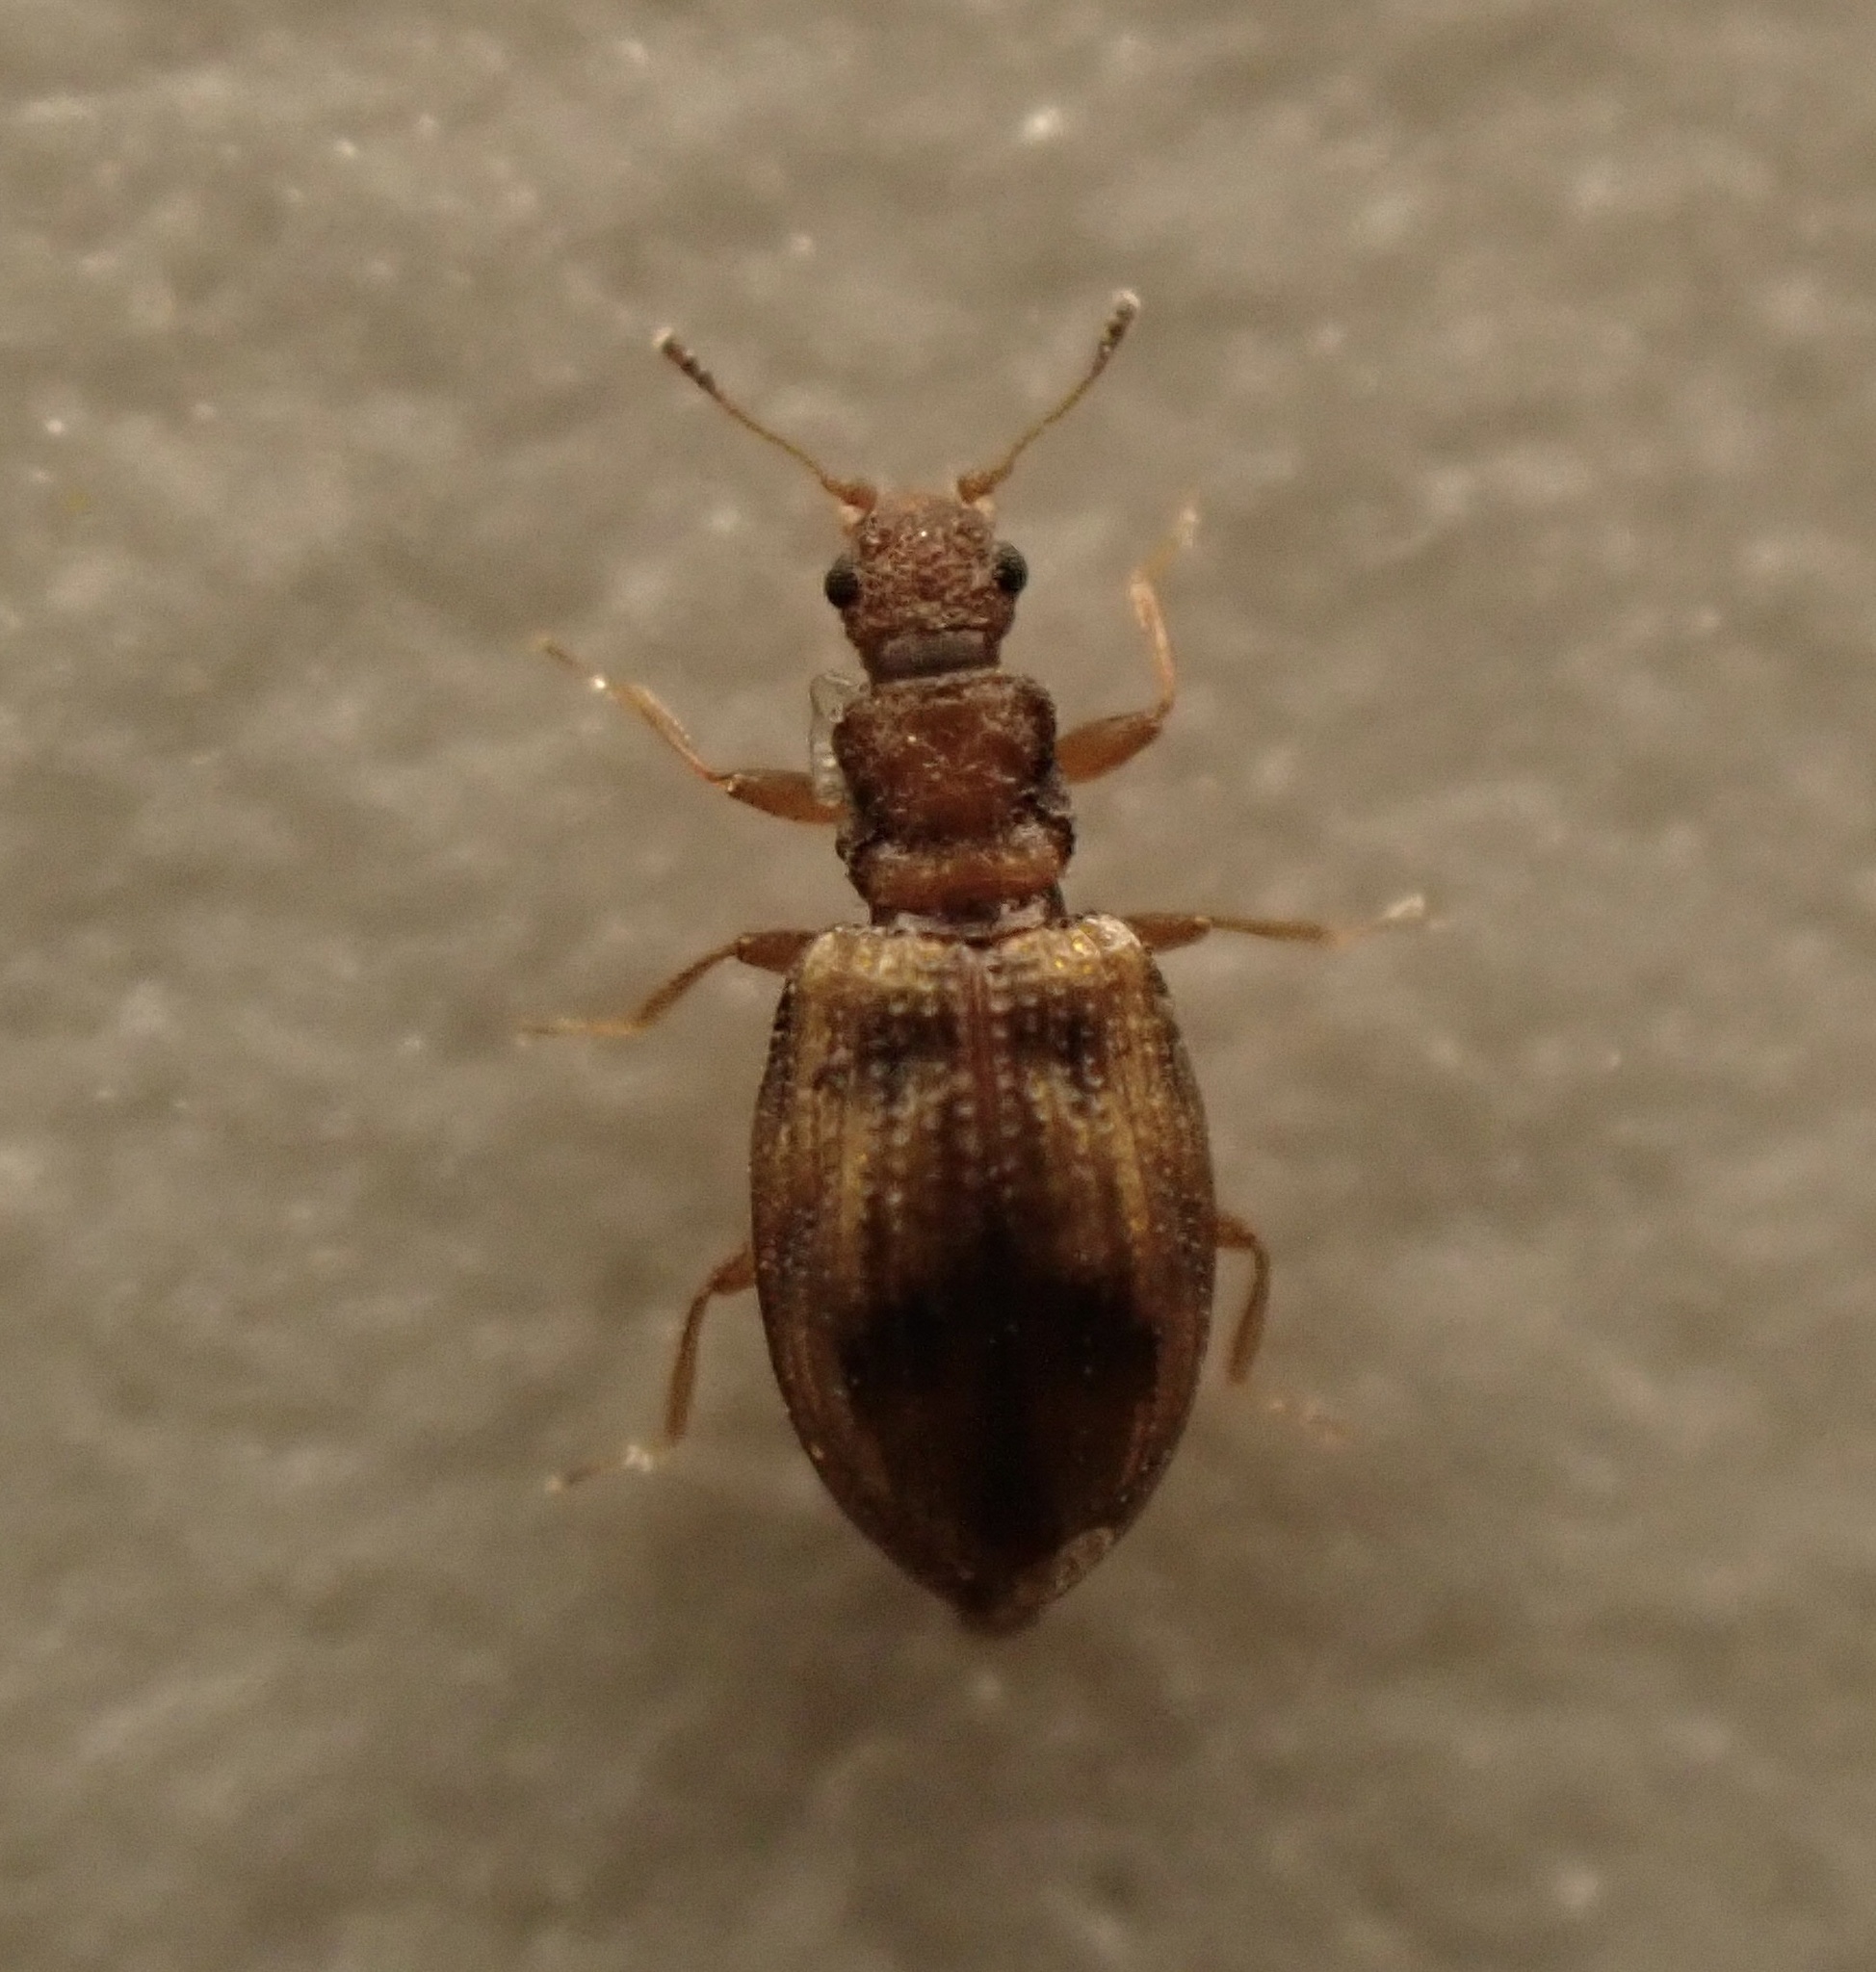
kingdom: Animalia
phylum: Arthropoda
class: Insecta
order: Coleoptera
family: Latridiidae
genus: Cartodere
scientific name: Cartodere bifasciata
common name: Plaster beetle
